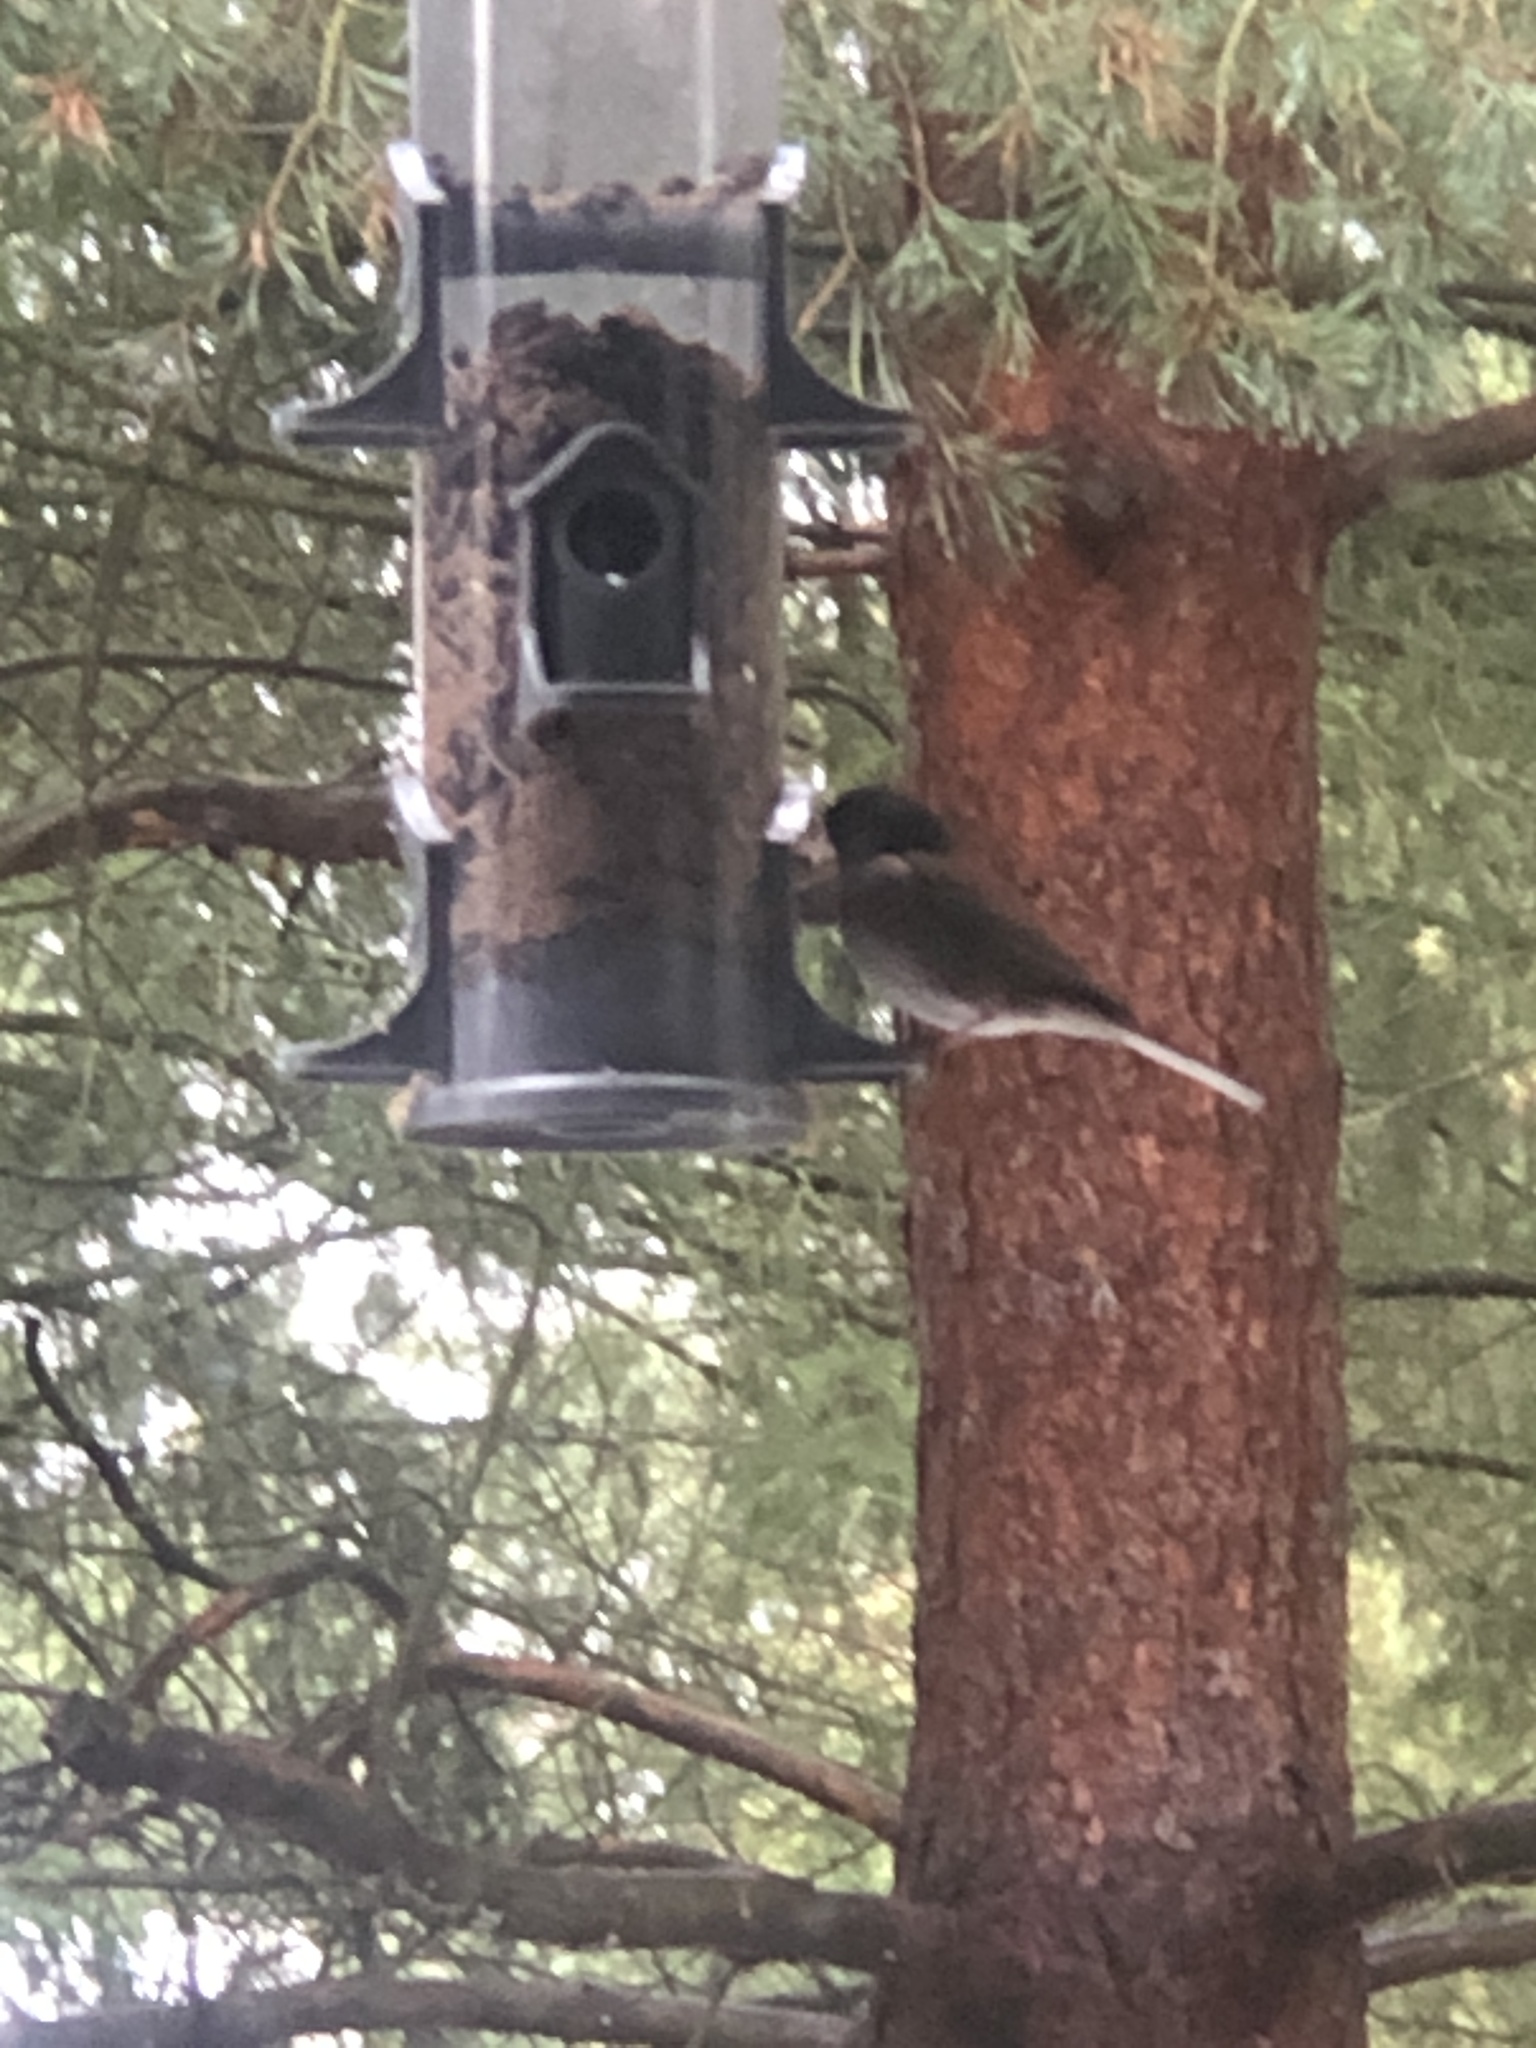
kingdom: Animalia
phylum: Chordata
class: Aves
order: Passeriformes
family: Passerellidae
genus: Junco
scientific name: Junco hyemalis
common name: Dark-eyed junco
